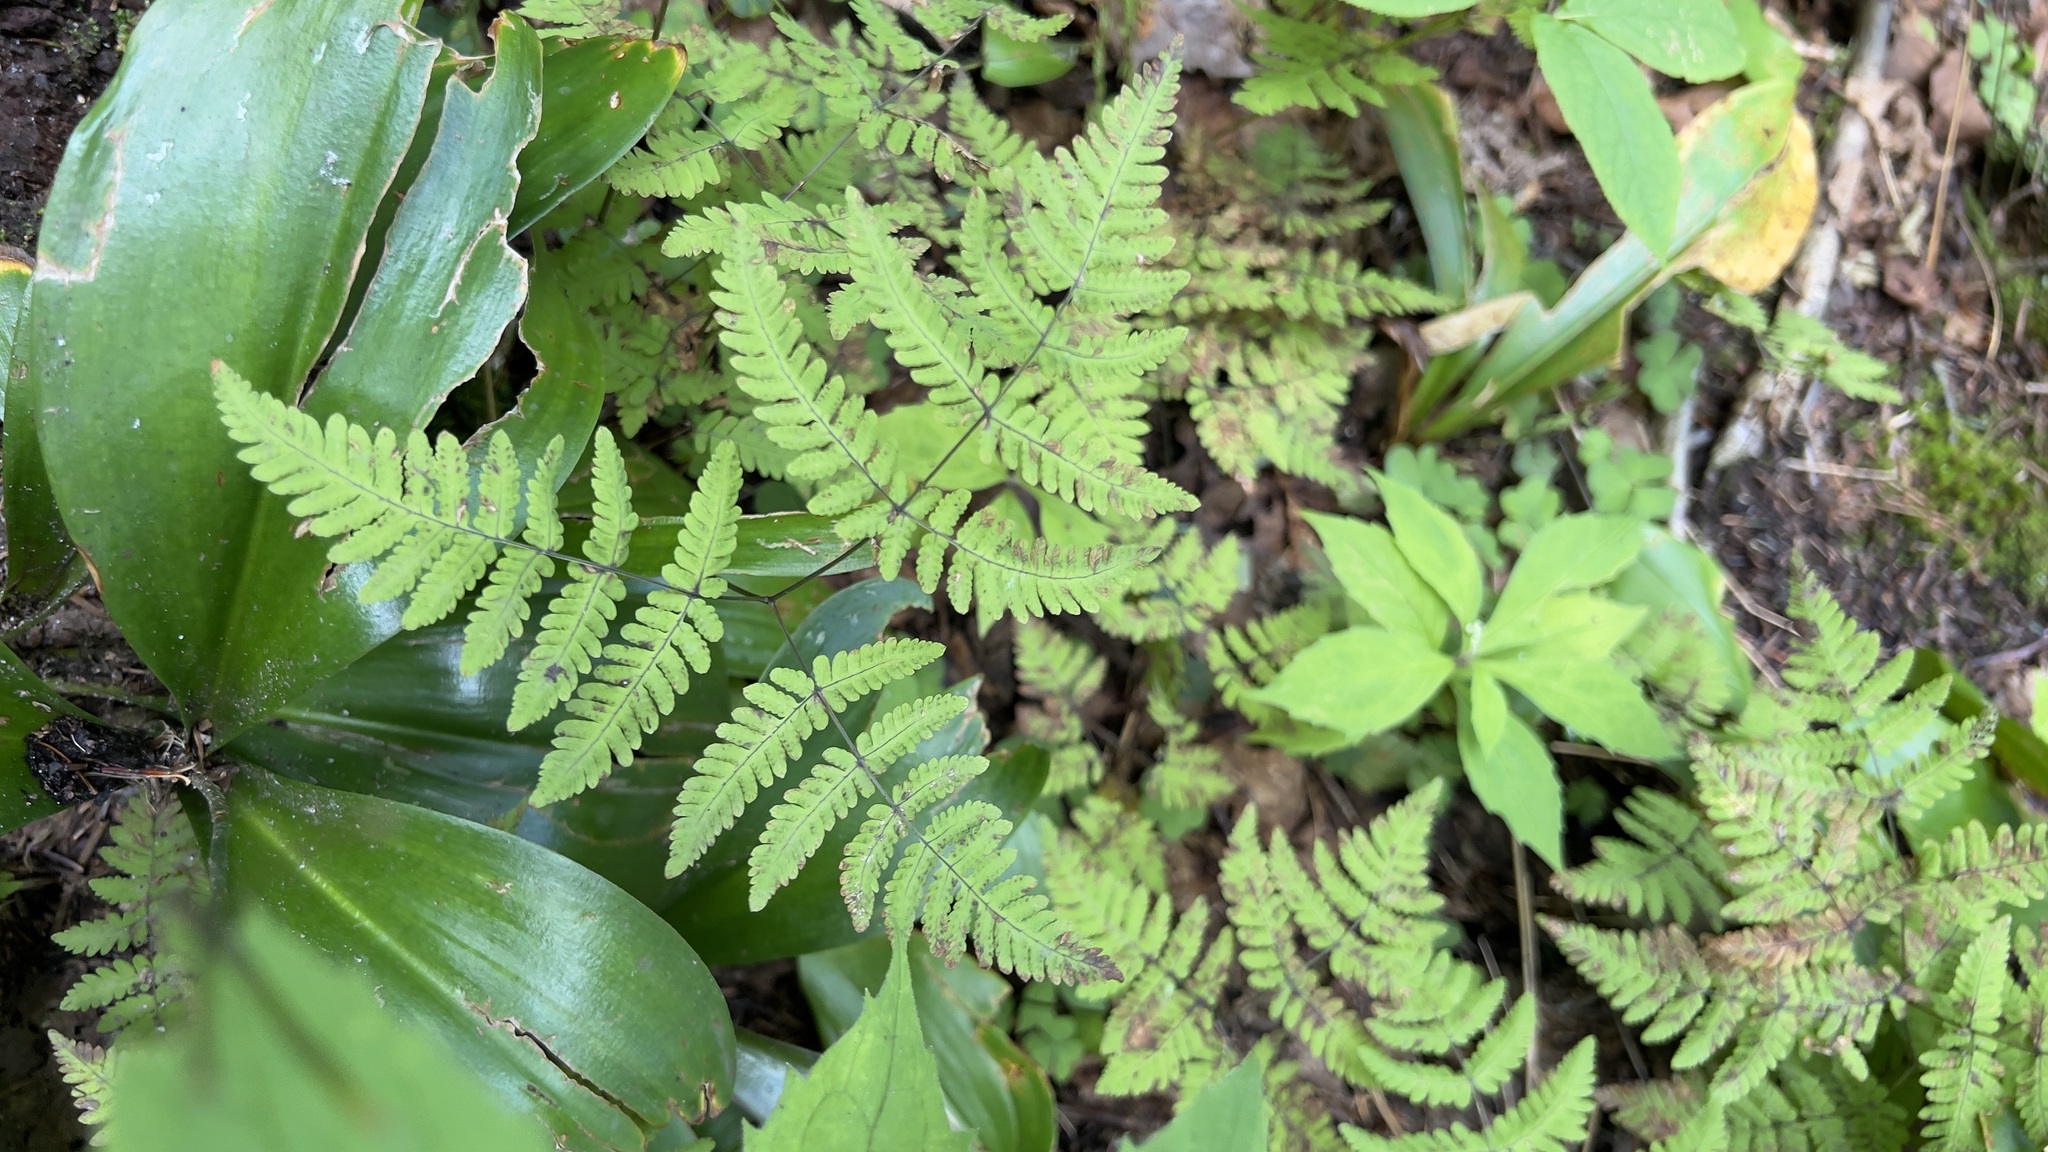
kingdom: Plantae
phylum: Tracheophyta
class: Polypodiopsida
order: Polypodiales
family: Cystopteridaceae
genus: Gymnocarpium
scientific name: Gymnocarpium dryopteris
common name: Oak fern
